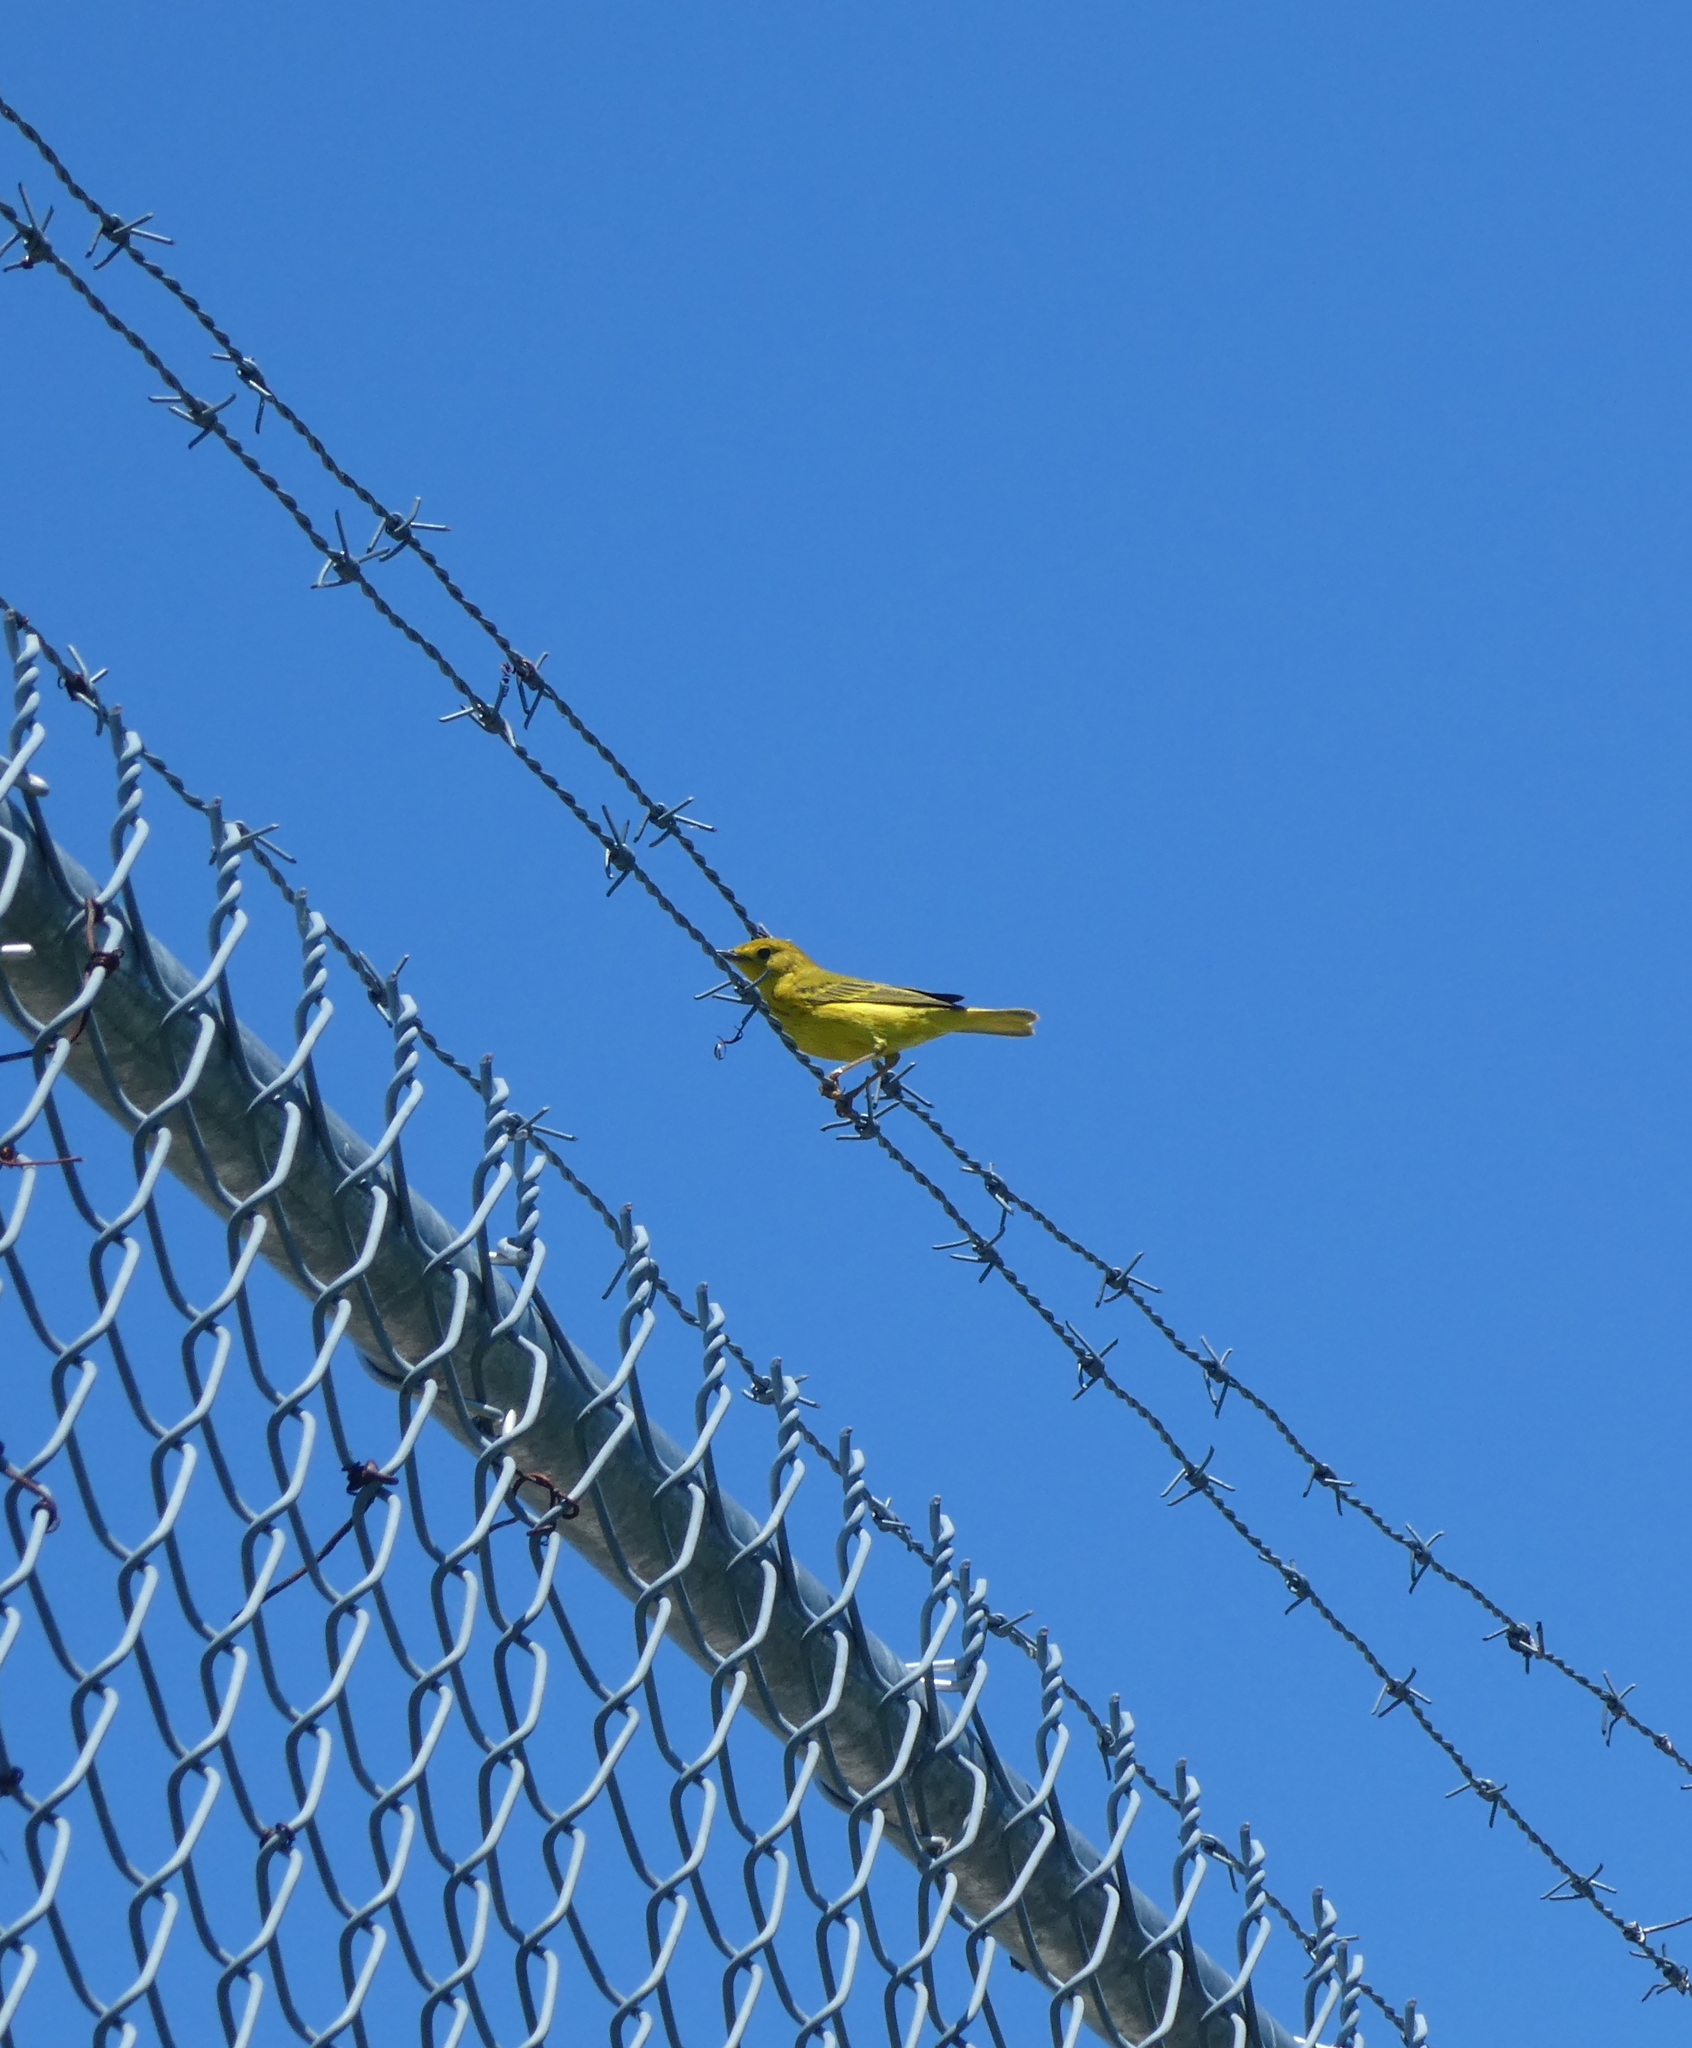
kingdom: Animalia
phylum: Chordata
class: Aves
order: Passeriformes
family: Parulidae
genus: Setophaga
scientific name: Setophaga petechia
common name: Yellow warbler
